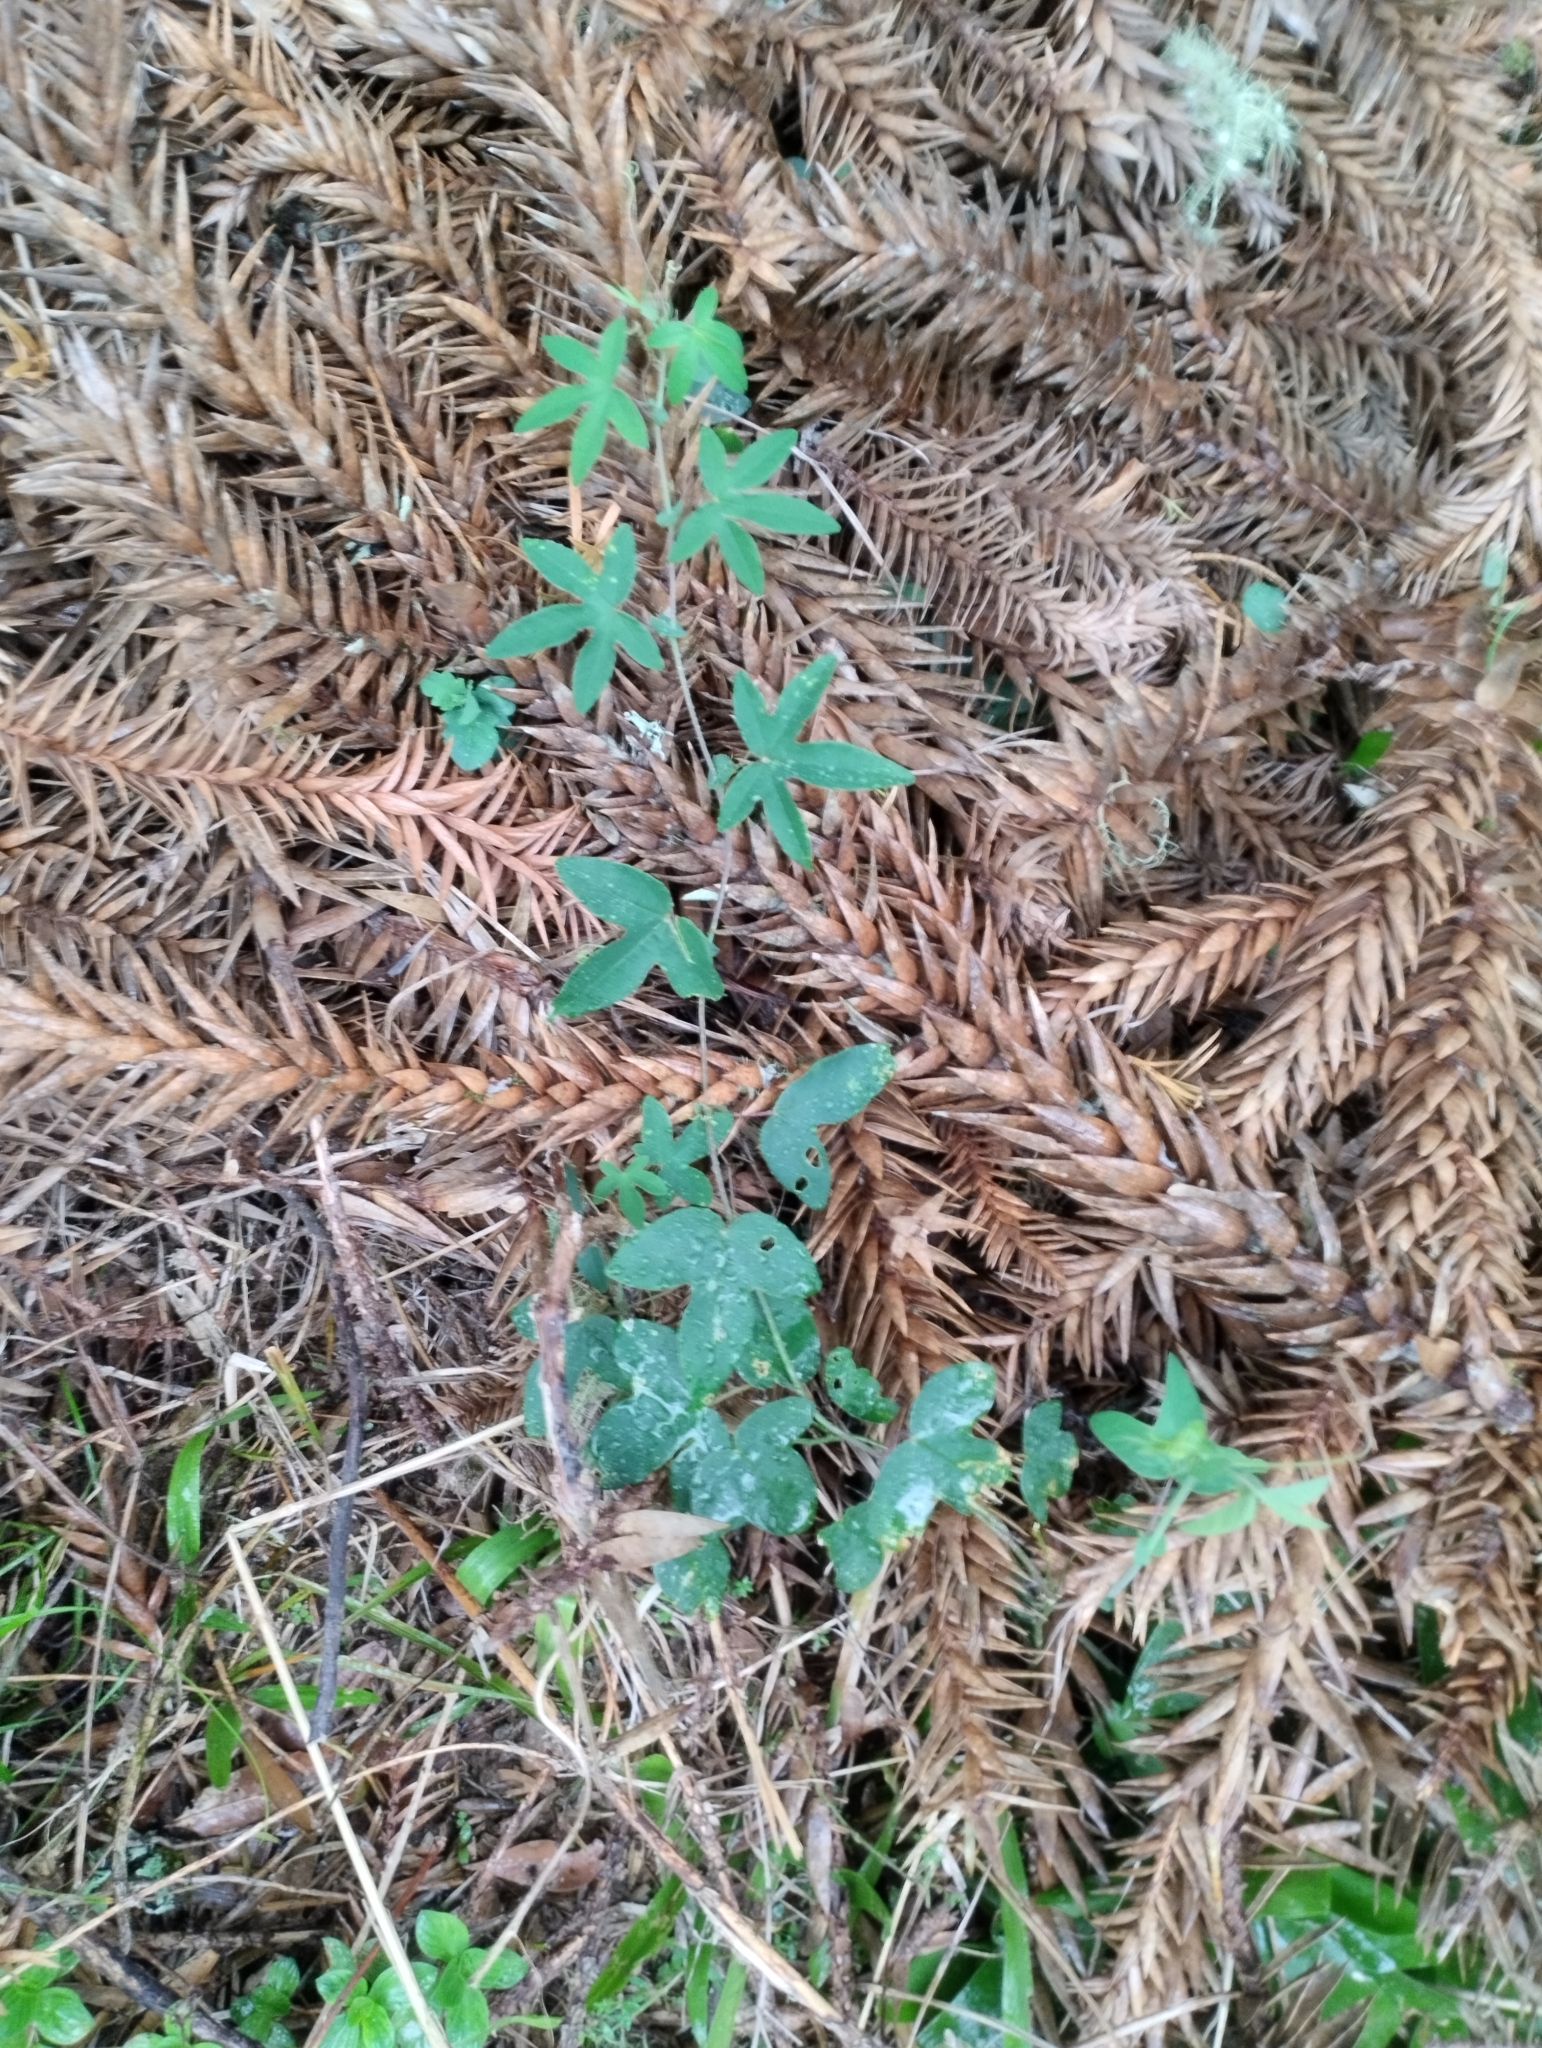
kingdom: Plantae
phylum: Tracheophyta
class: Magnoliopsida
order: Malpighiales
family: Passifloraceae
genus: Passiflora
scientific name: Passiflora caerulea
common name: Blue passionflower
